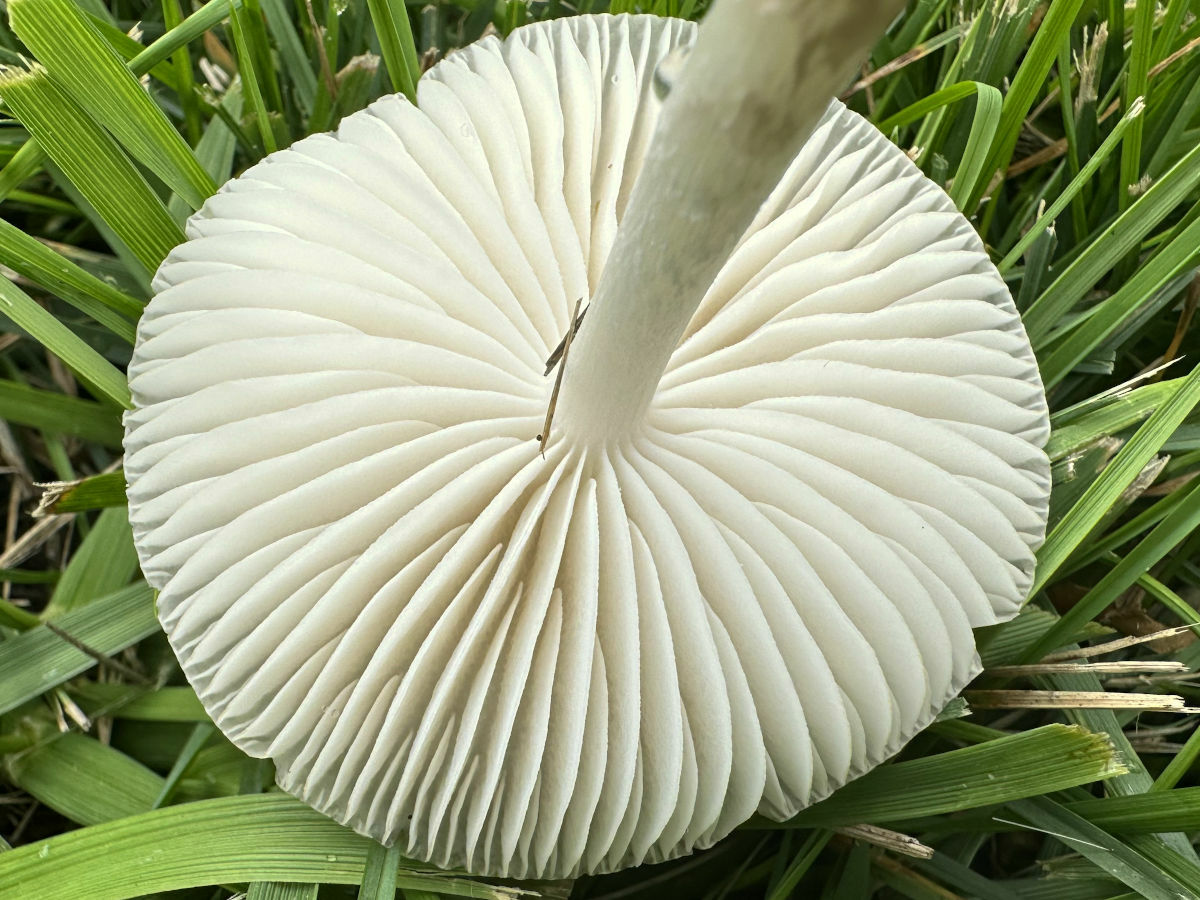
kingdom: Fungi
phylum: Basidiomycota
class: Agaricomycetes
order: Agaricales
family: Pluteaceae
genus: Pluteus
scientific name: Pluteus cervinus
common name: Deer shield
